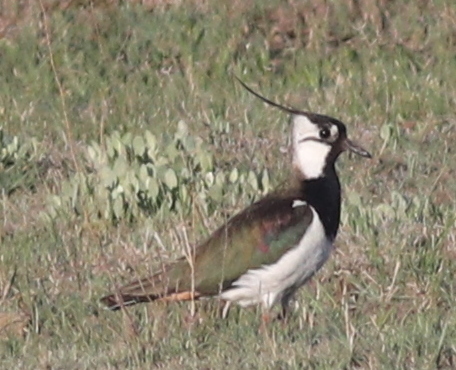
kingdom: Animalia
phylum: Chordata
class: Aves
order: Charadriiformes
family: Charadriidae
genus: Vanellus
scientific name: Vanellus vanellus
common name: Northern lapwing
